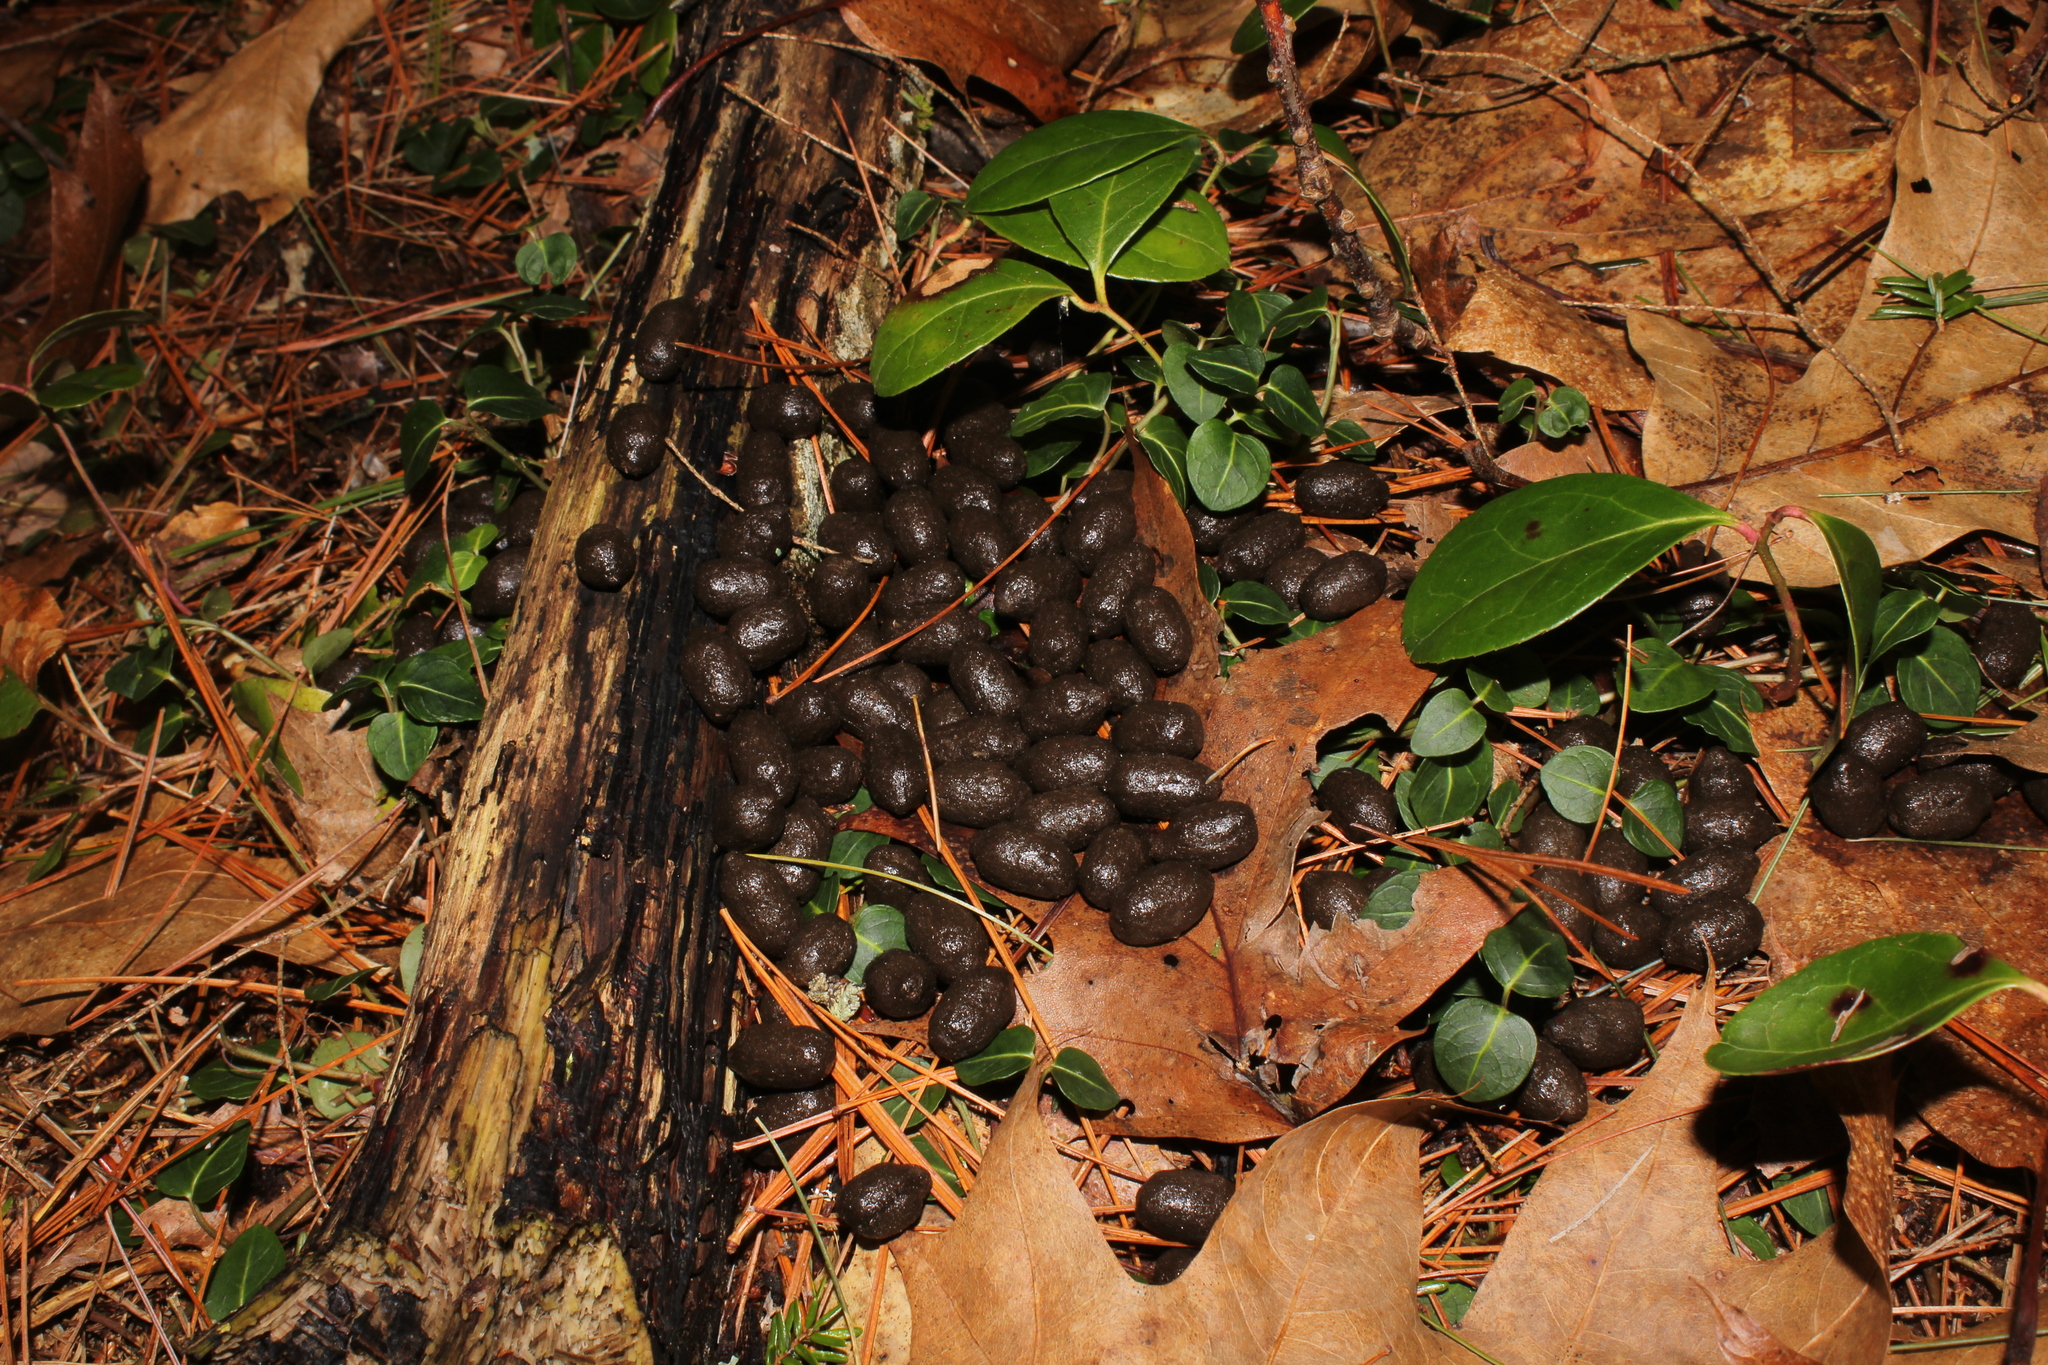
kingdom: Animalia
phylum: Chordata
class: Mammalia
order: Artiodactyla
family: Cervidae
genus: Odocoileus
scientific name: Odocoileus virginianus
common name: White-tailed deer
